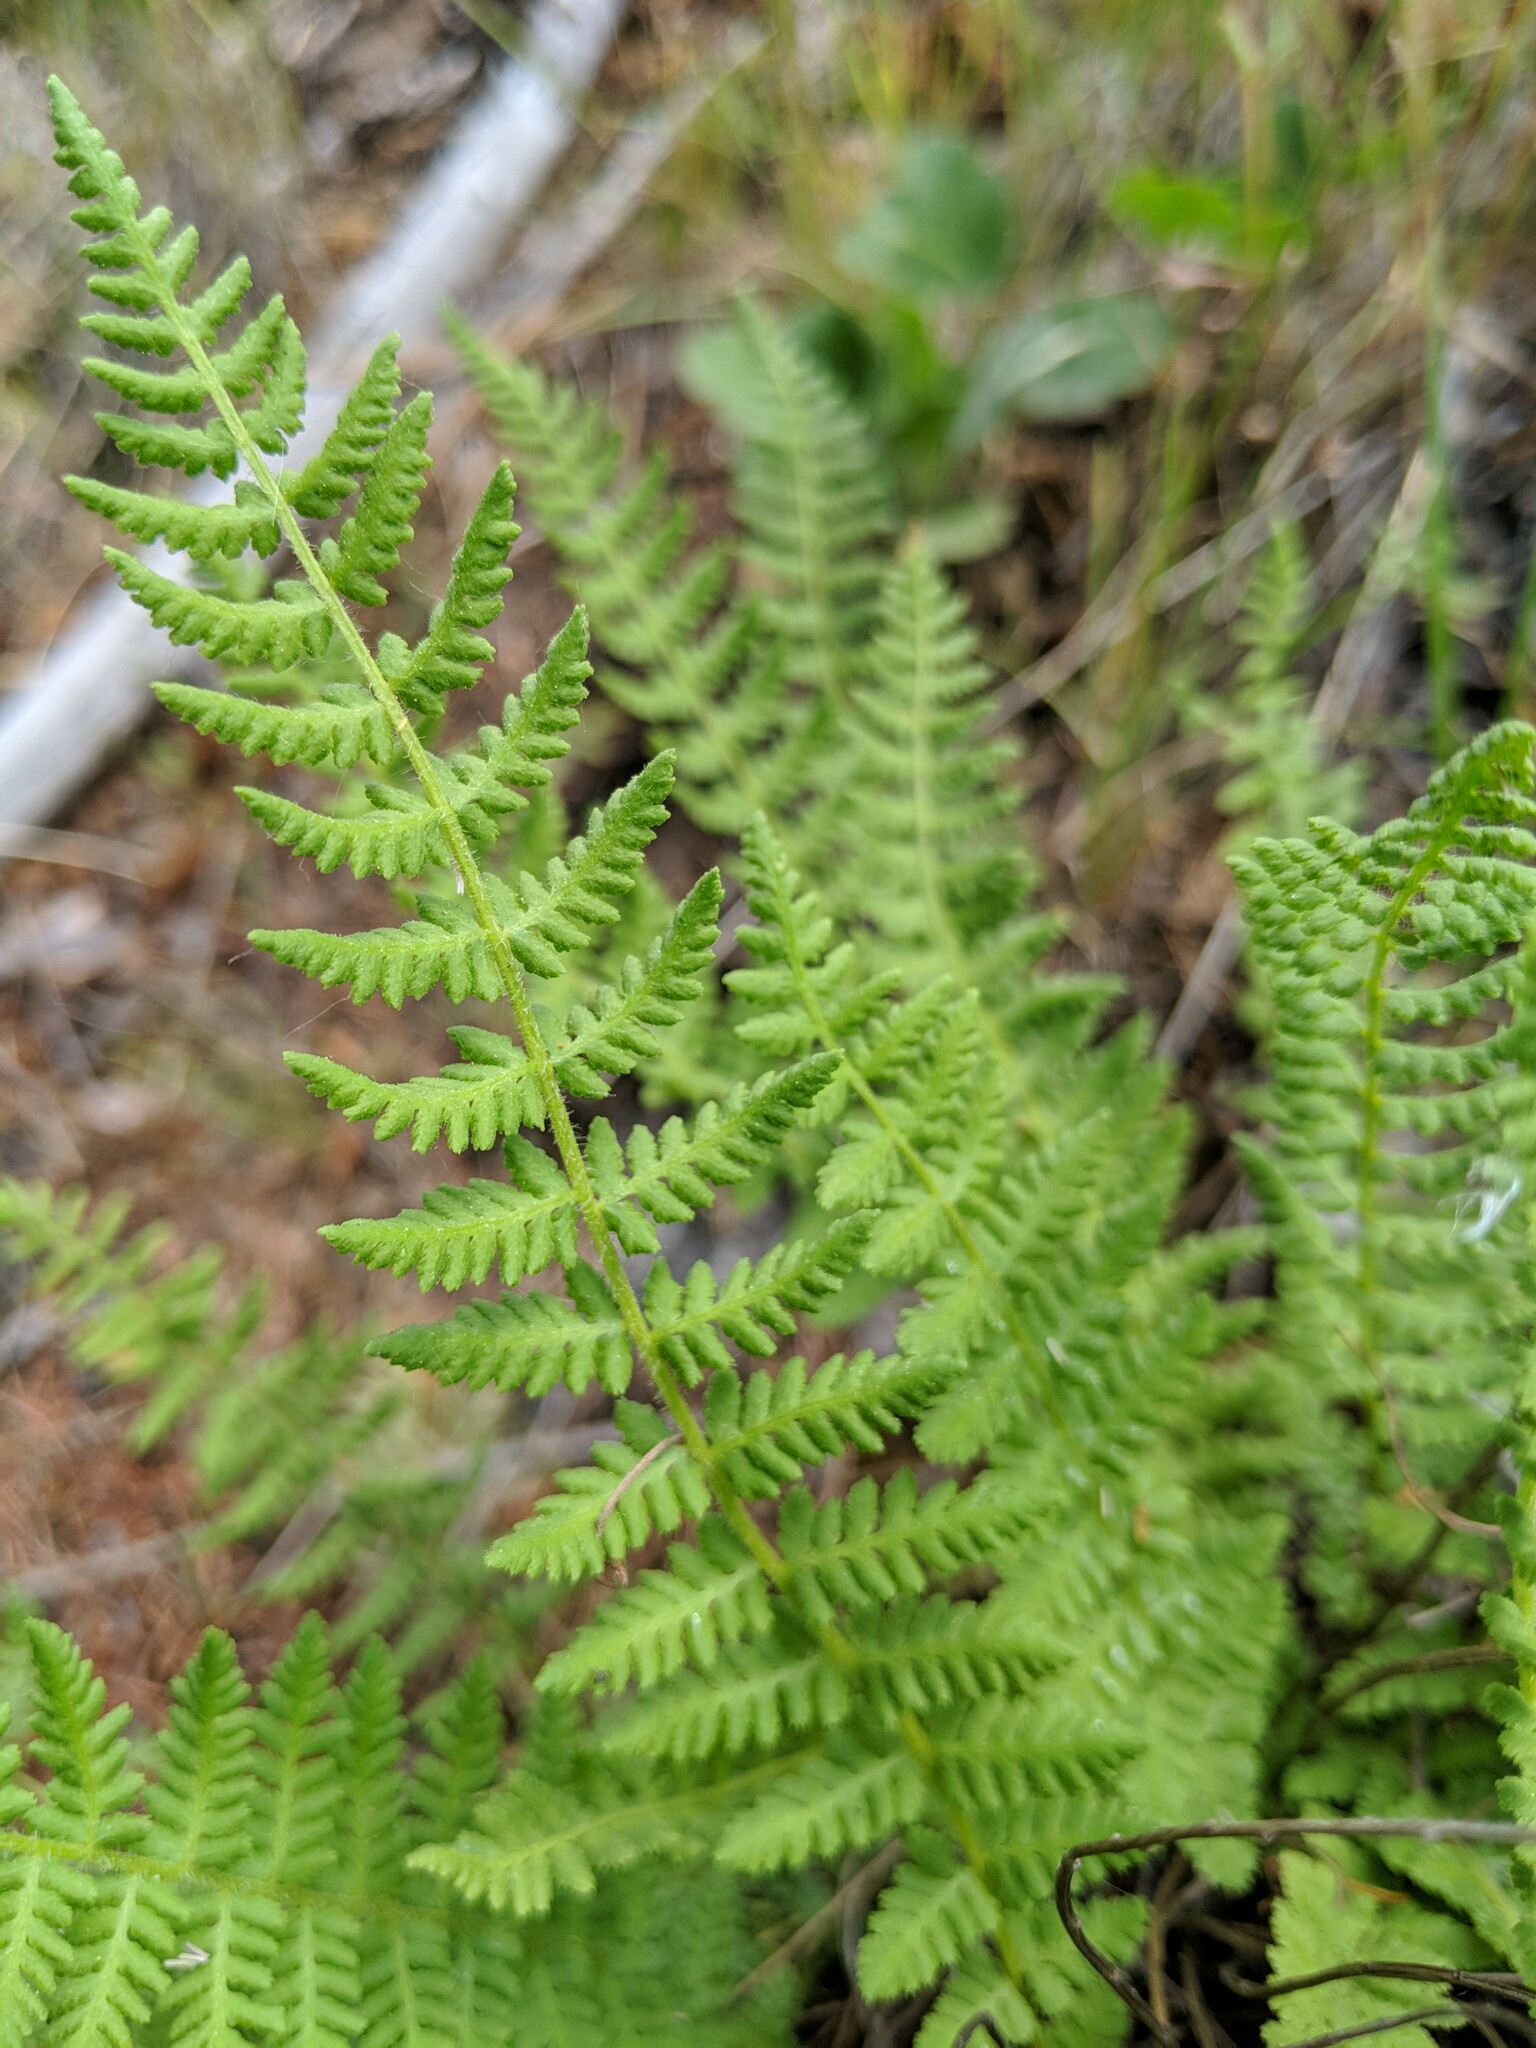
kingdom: Plantae
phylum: Tracheophyta
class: Polypodiopsida
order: Polypodiales
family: Woodsiaceae
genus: Physematium
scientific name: Physematium scopulinum
